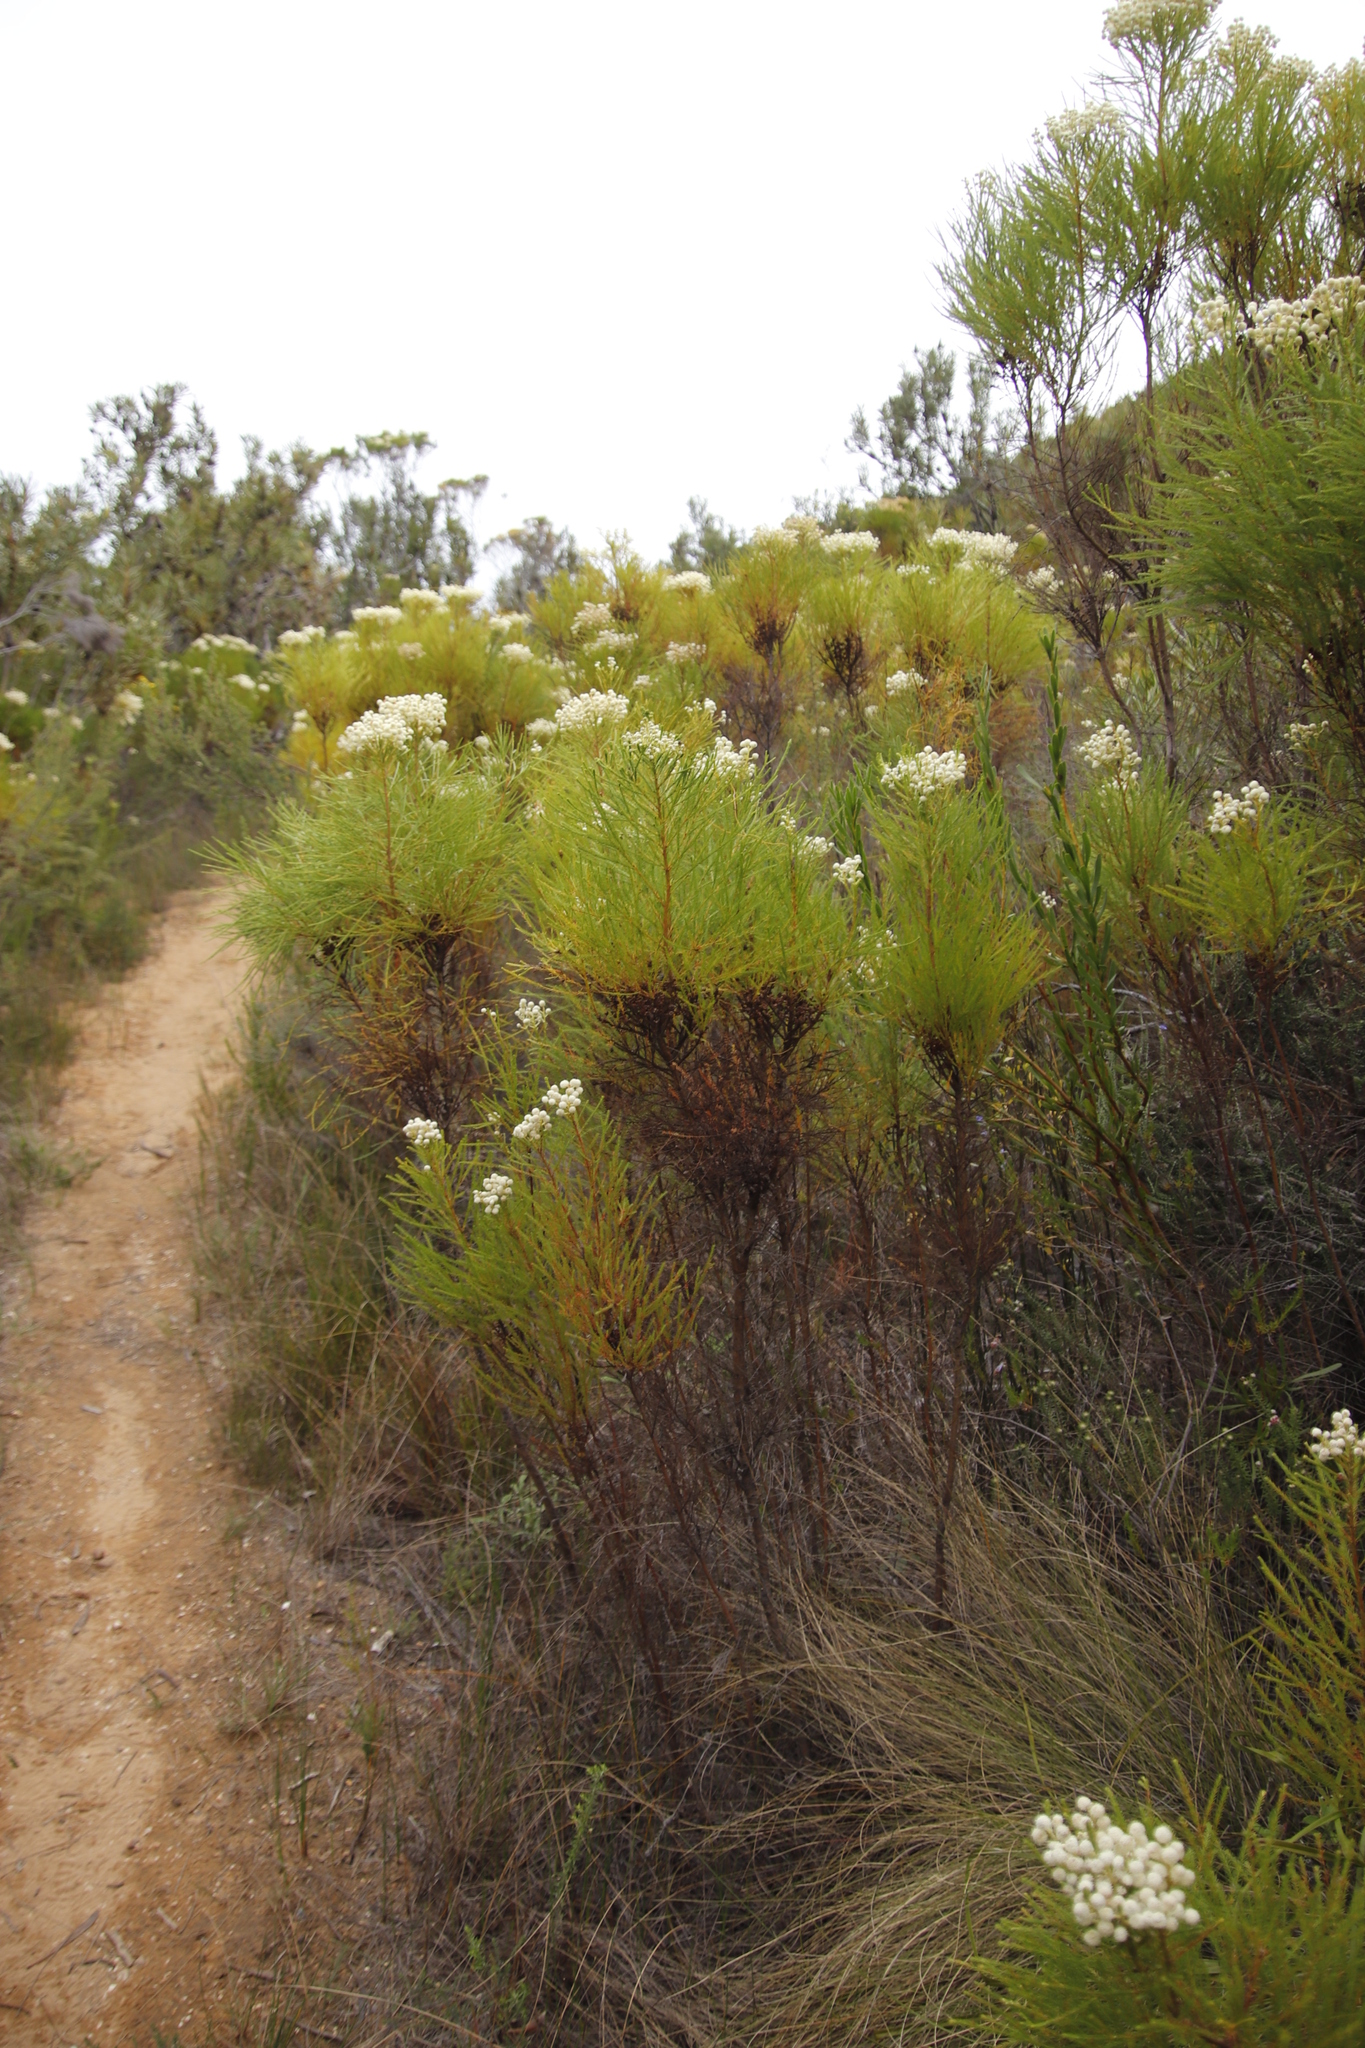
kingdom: Plantae
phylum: Tracheophyta
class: Magnoliopsida
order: Bruniales
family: Bruniaceae
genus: Berzelia
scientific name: Berzelia lanuginosa
